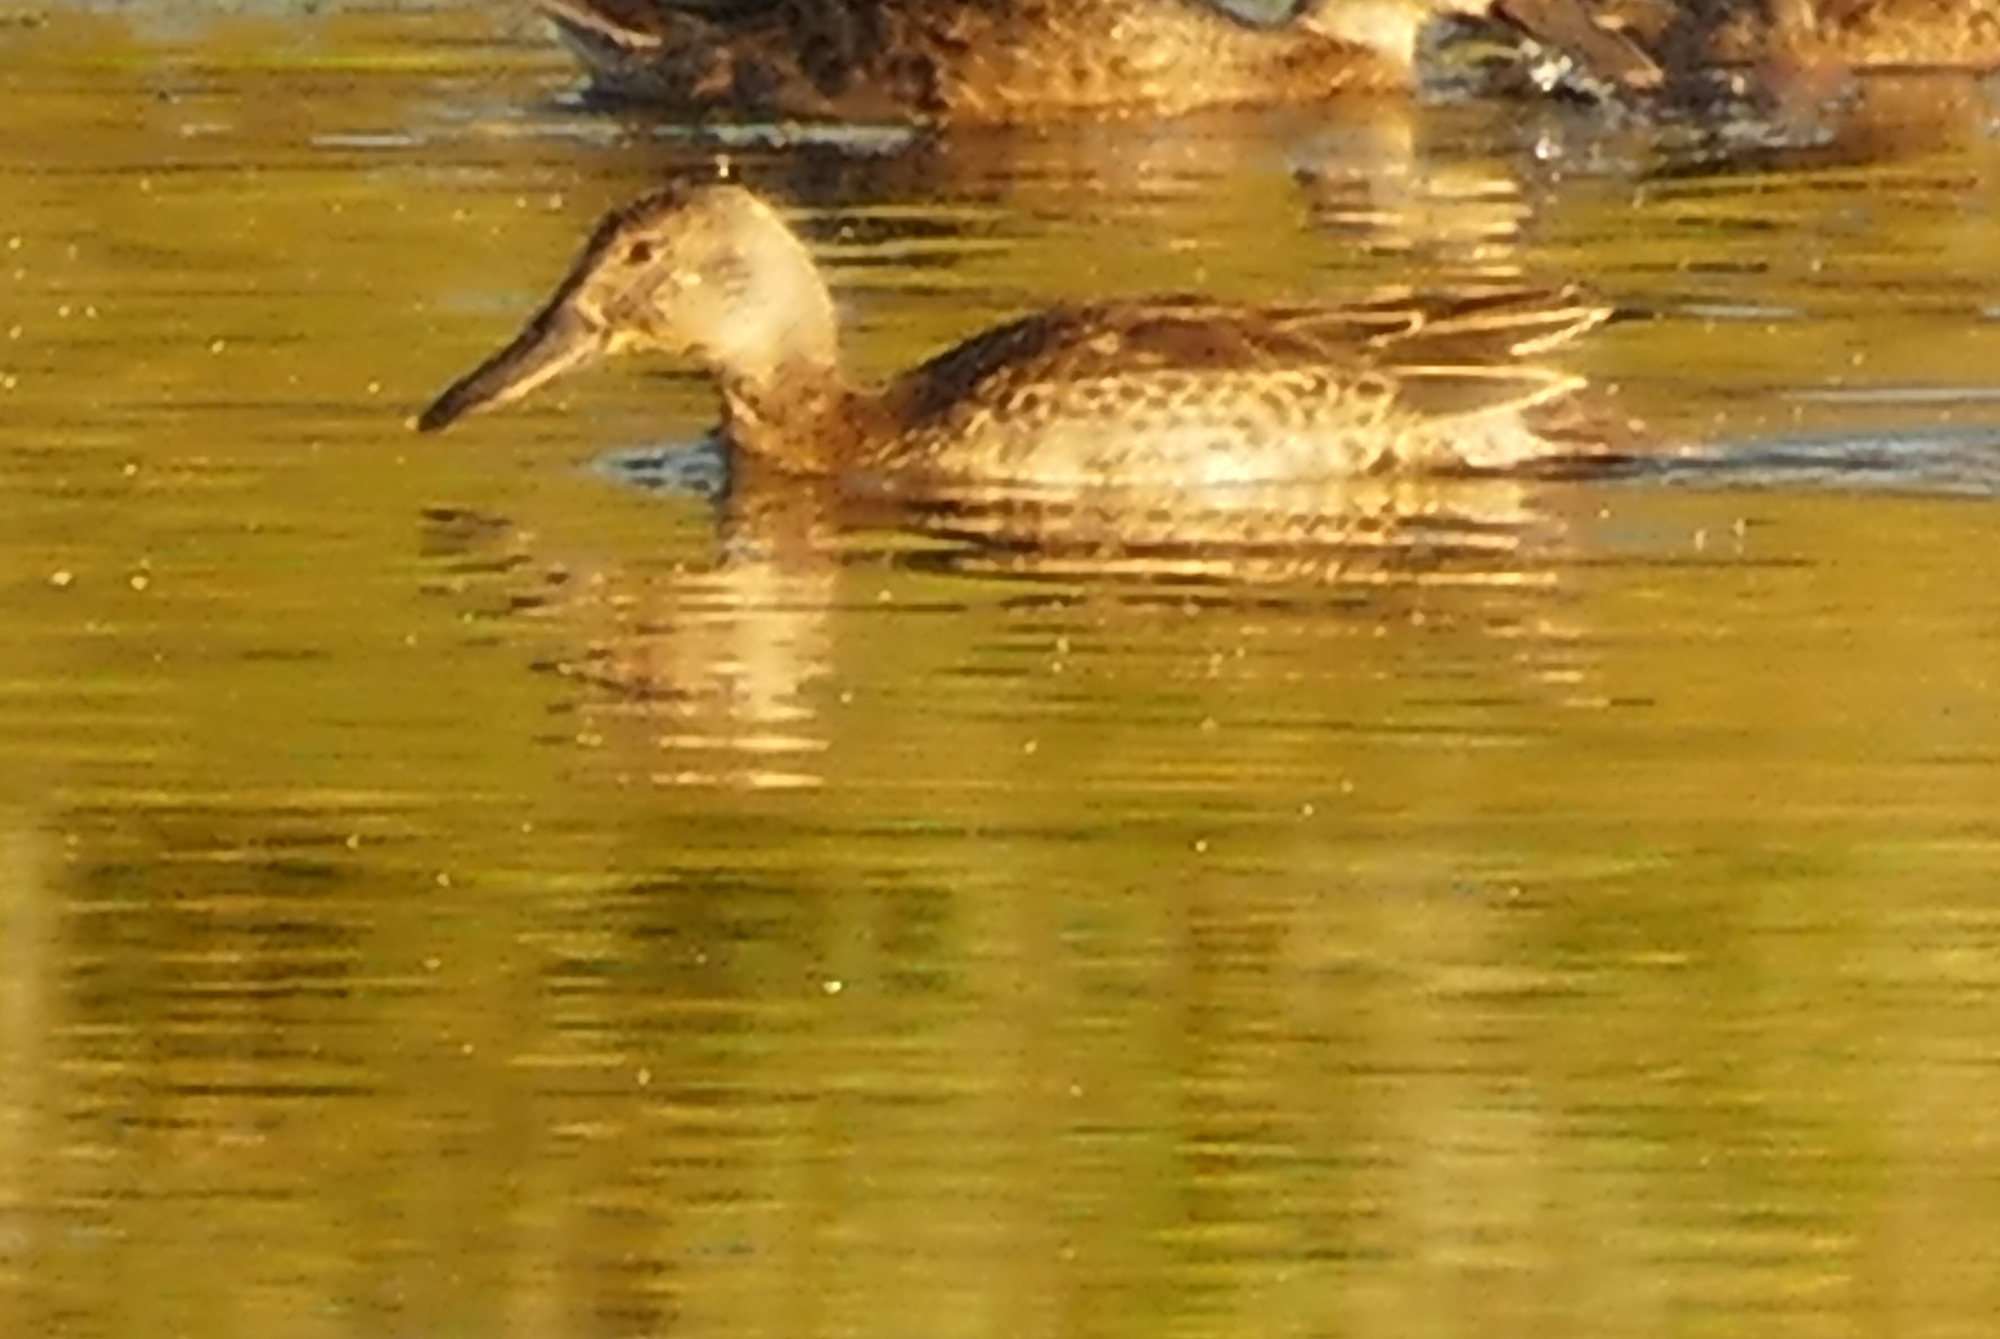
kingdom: Animalia
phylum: Chordata
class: Aves
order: Anseriformes
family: Anatidae
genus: Spatula
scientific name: Spatula cyanoptera
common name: Cinnamon teal
